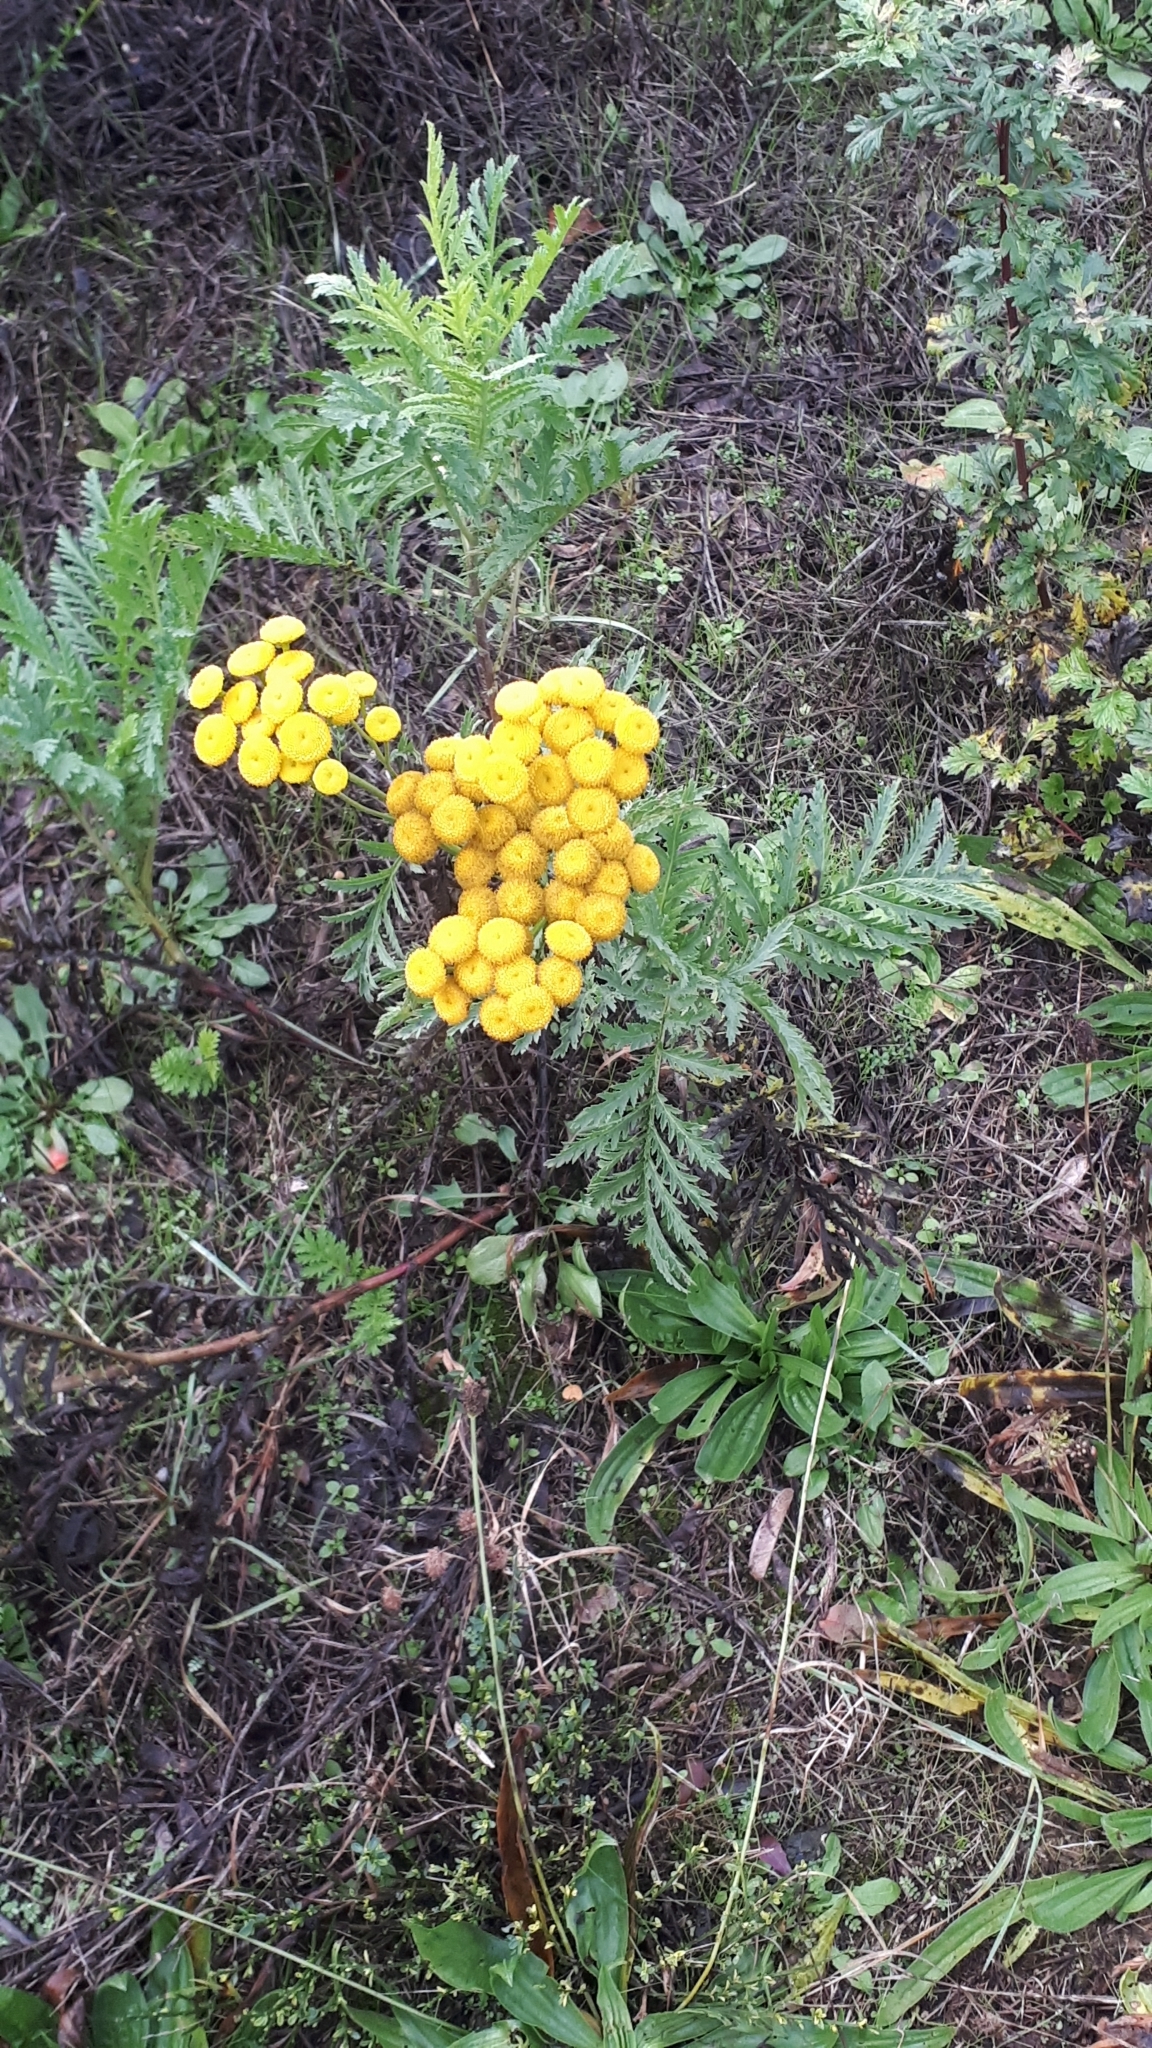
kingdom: Plantae
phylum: Tracheophyta
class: Magnoliopsida
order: Asterales
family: Asteraceae
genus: Tanacetum
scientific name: Tanacetum vulgare
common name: Common tansy
